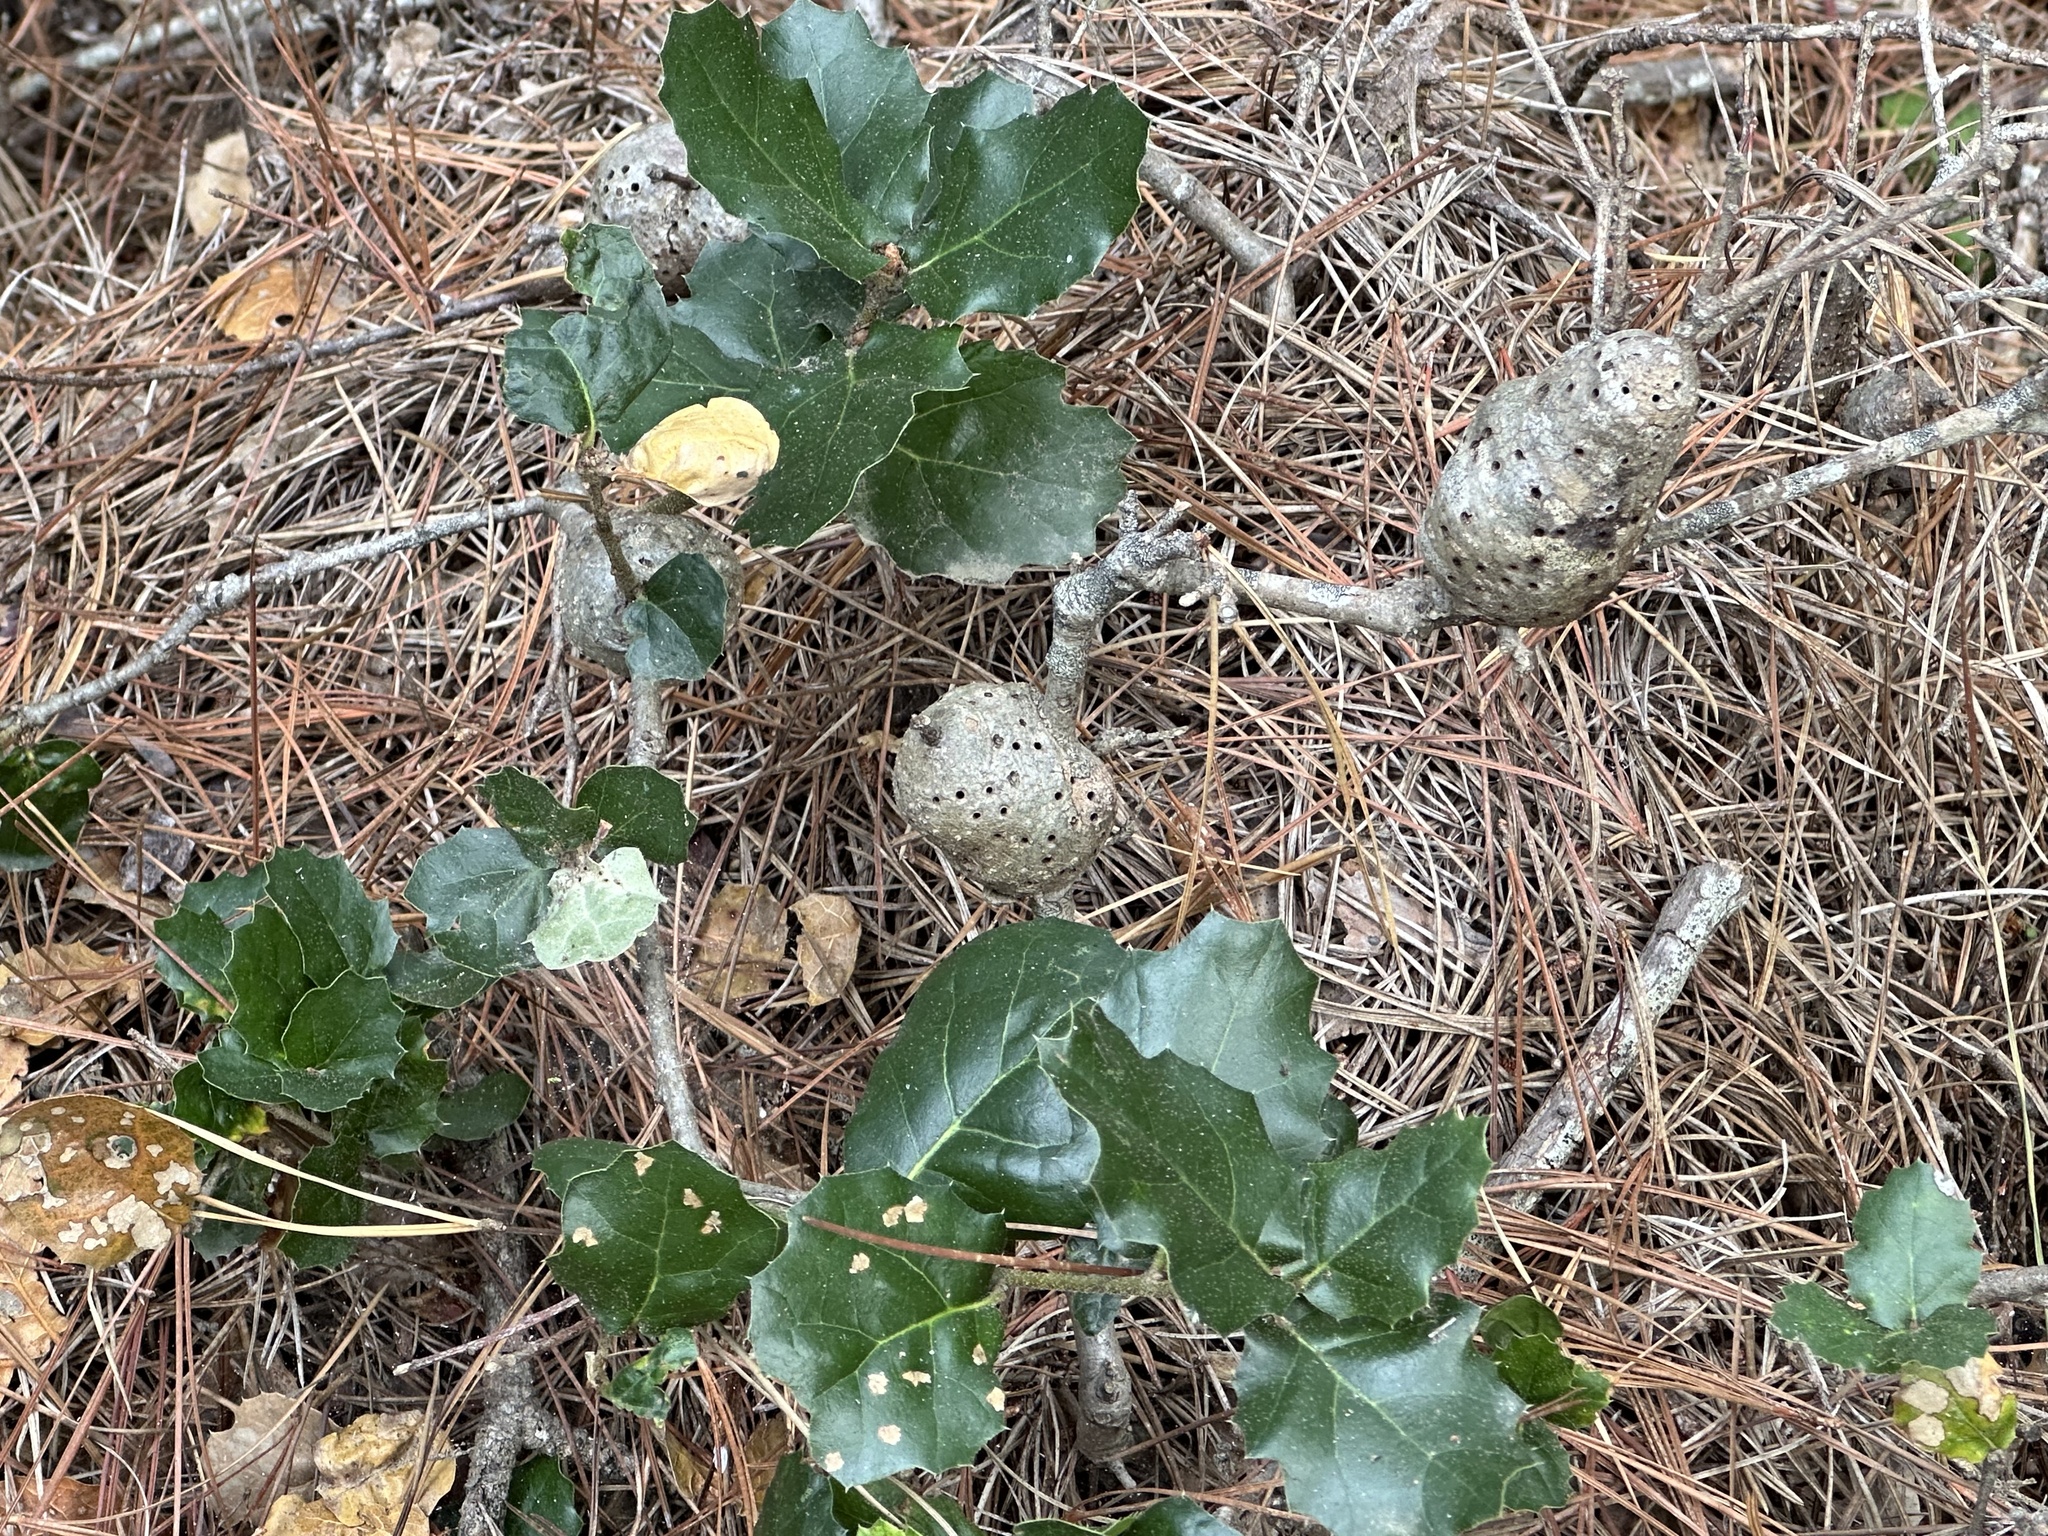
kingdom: Animalia
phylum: Arthropoda
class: Insecta
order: Hymenoptera
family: Cynipidae
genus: Callirhytis
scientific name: Callirhytis
